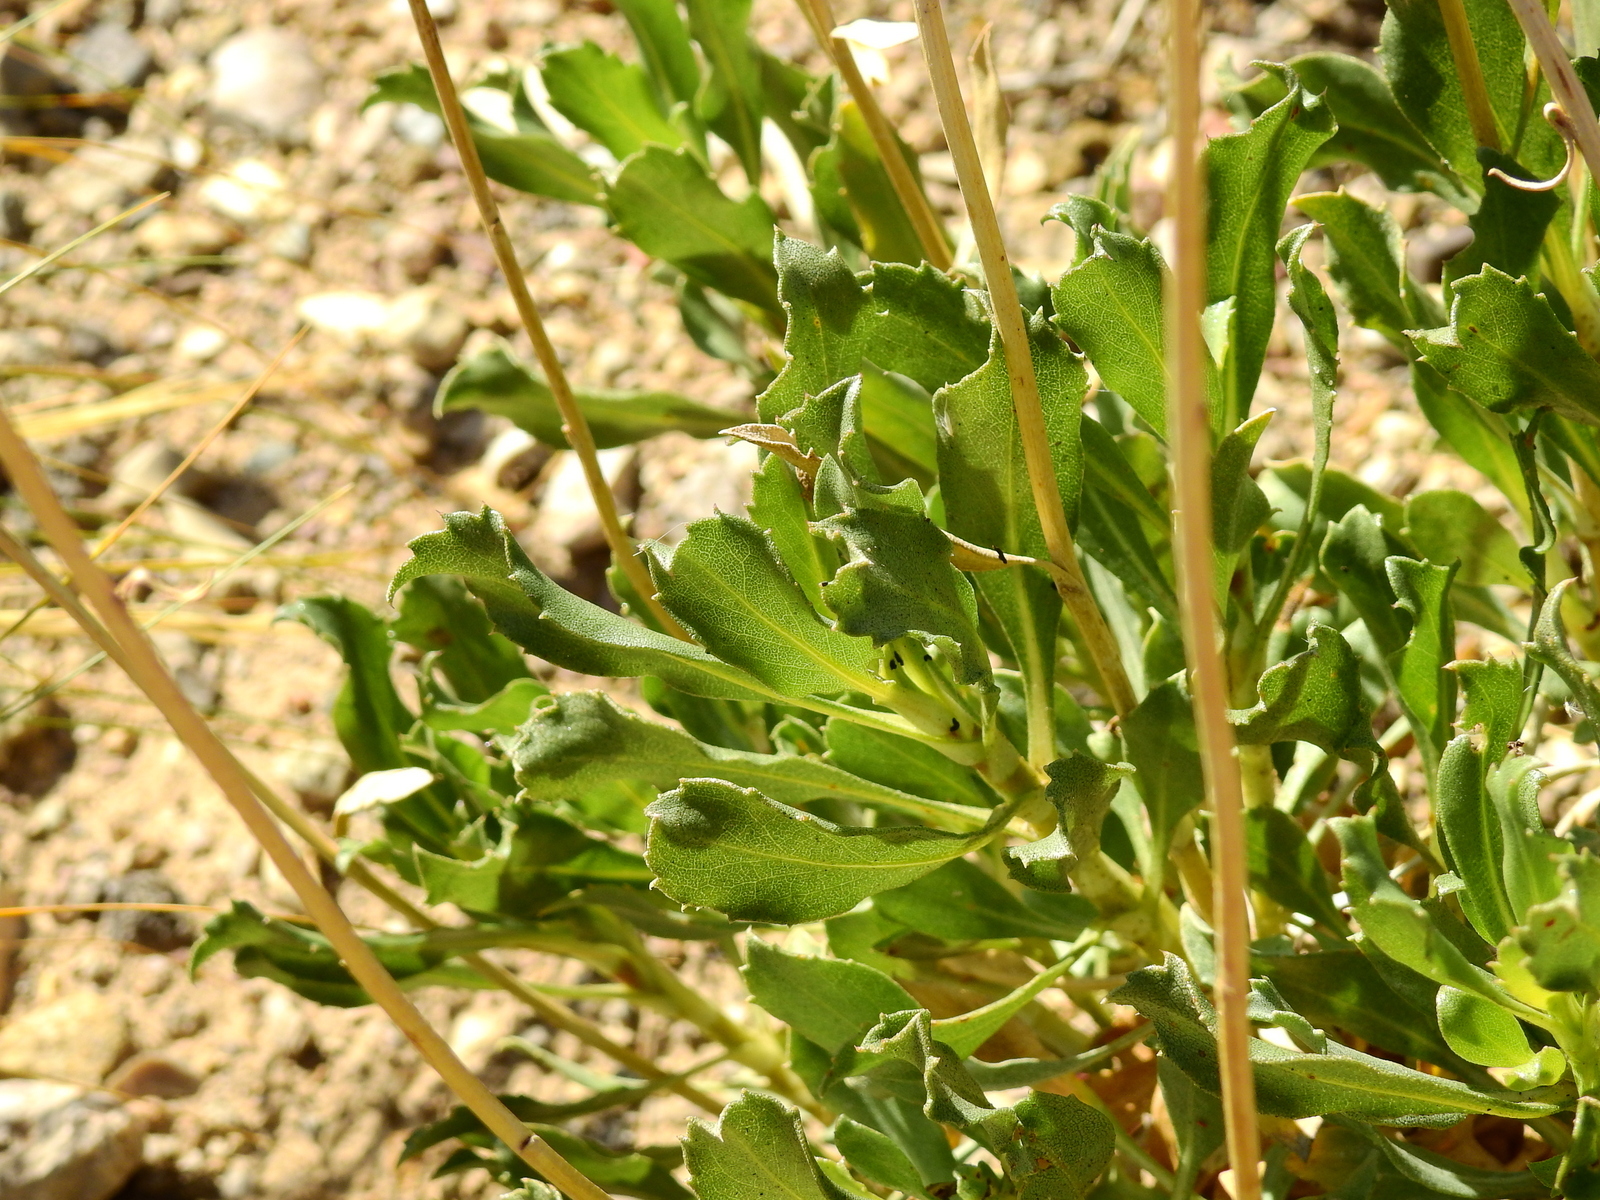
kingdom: Plantae
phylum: Tracheophyta
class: Magnoliopsida
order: Asterales
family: Asteraceae
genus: Grindelia
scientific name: Grindelia chiloensis
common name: Shrubby gumweed
